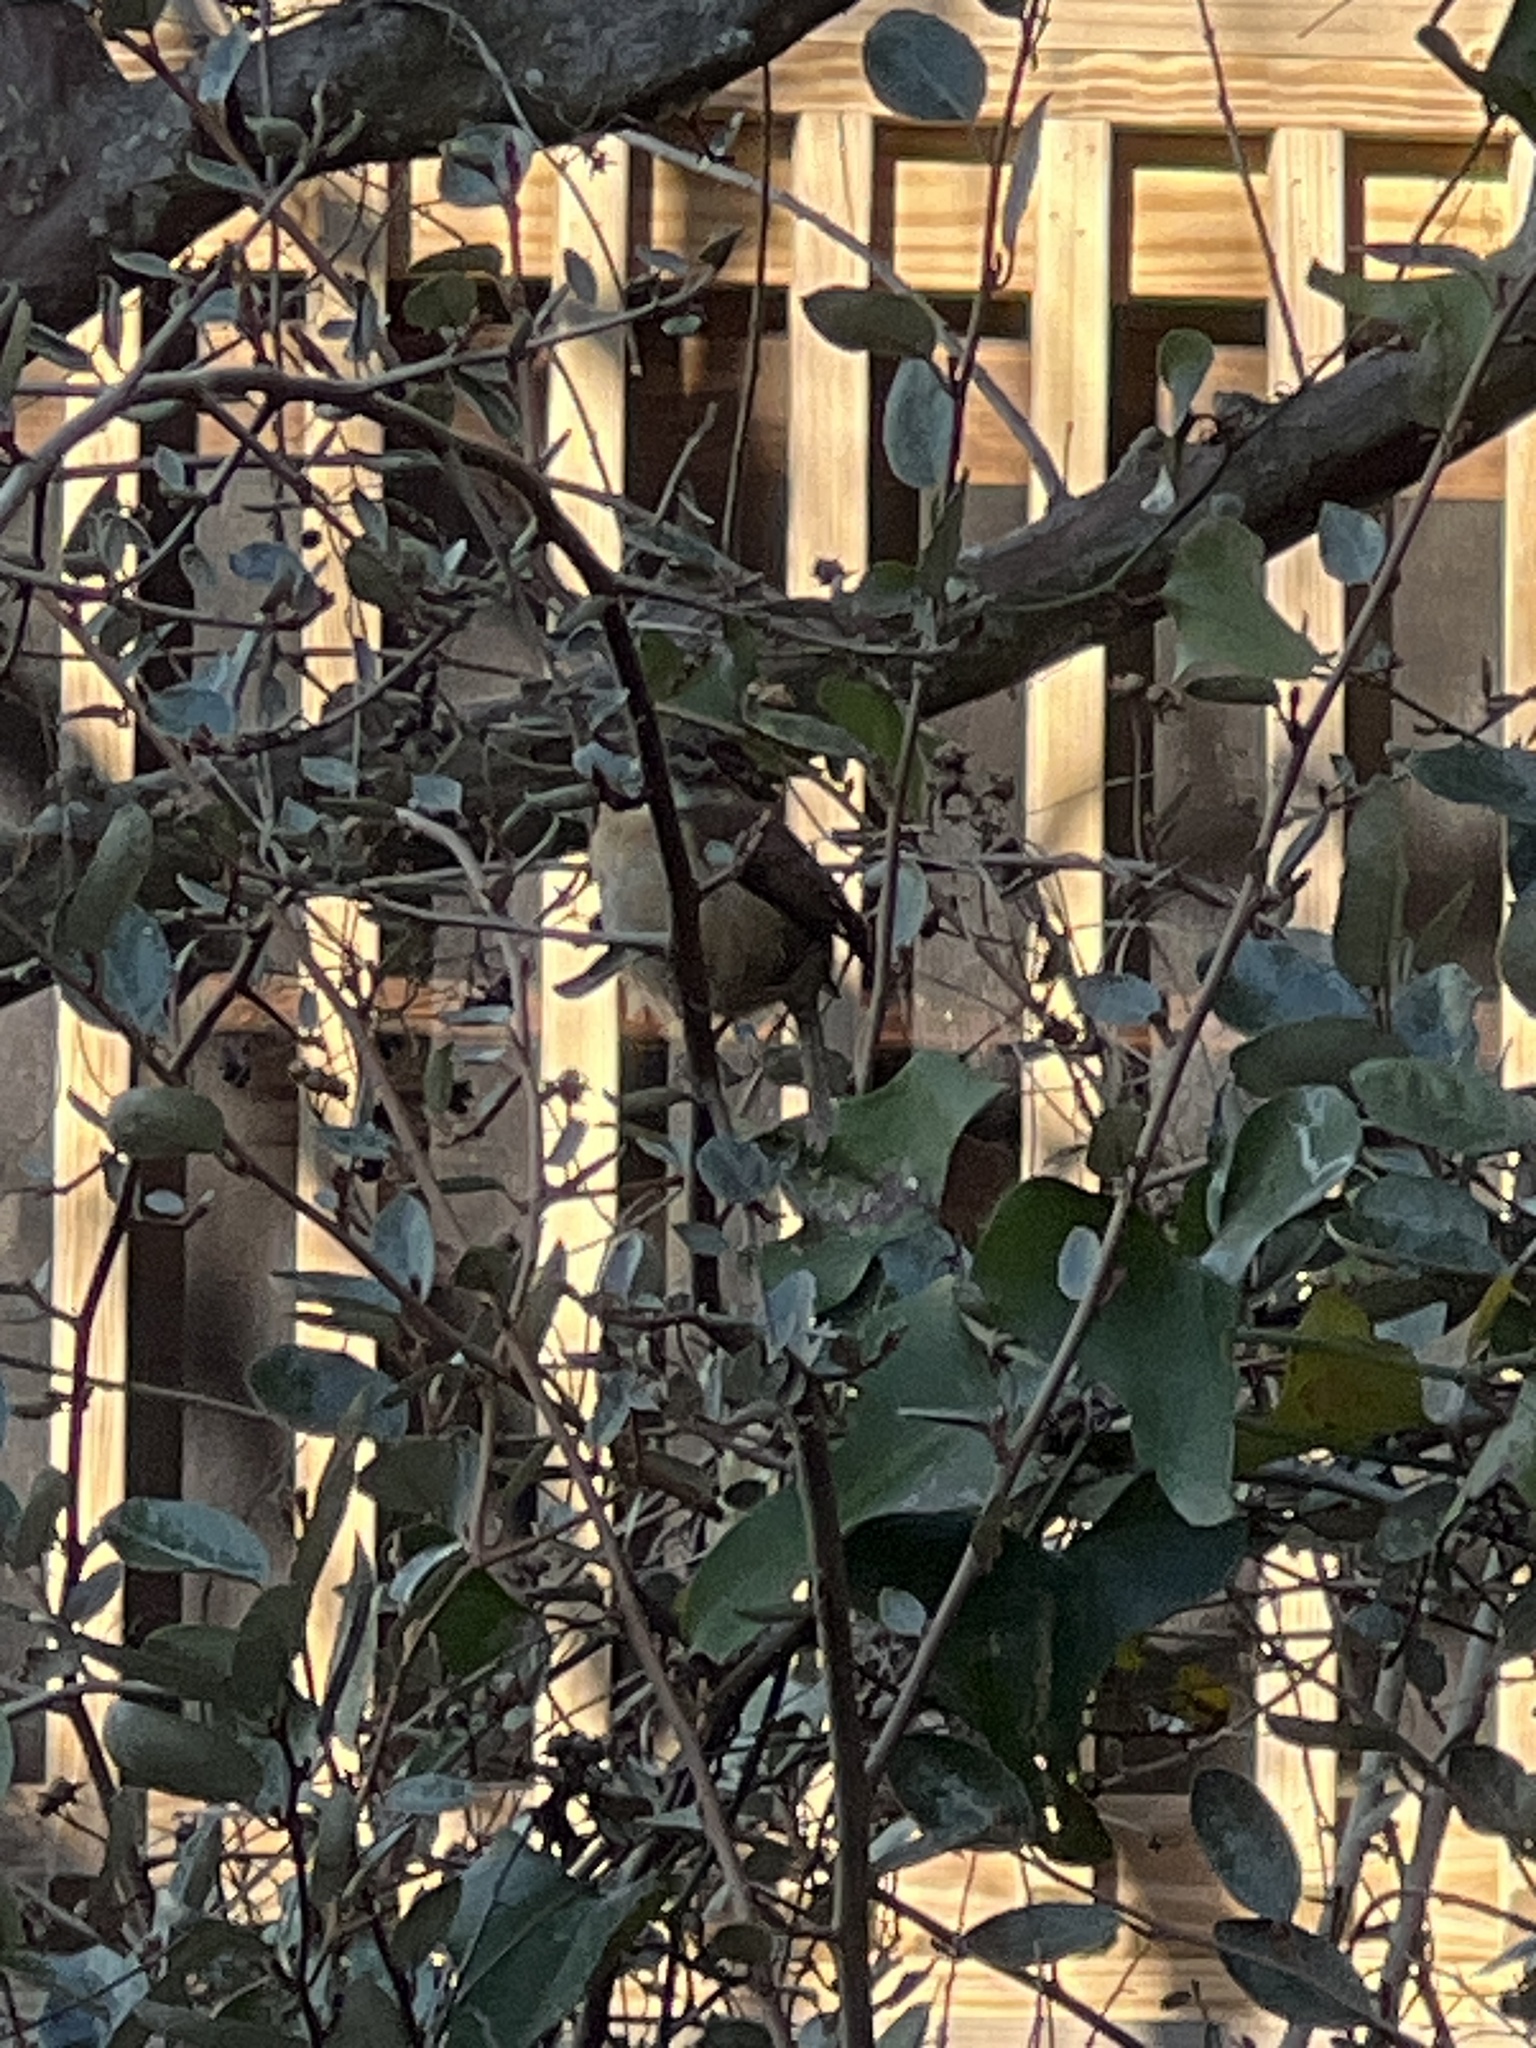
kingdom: Animalia
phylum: Chordata
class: Aves
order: Passeriformes
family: Troglodytidae
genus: Thryothorus
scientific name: Thryothorus ludovicianus
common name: Carolina wren
